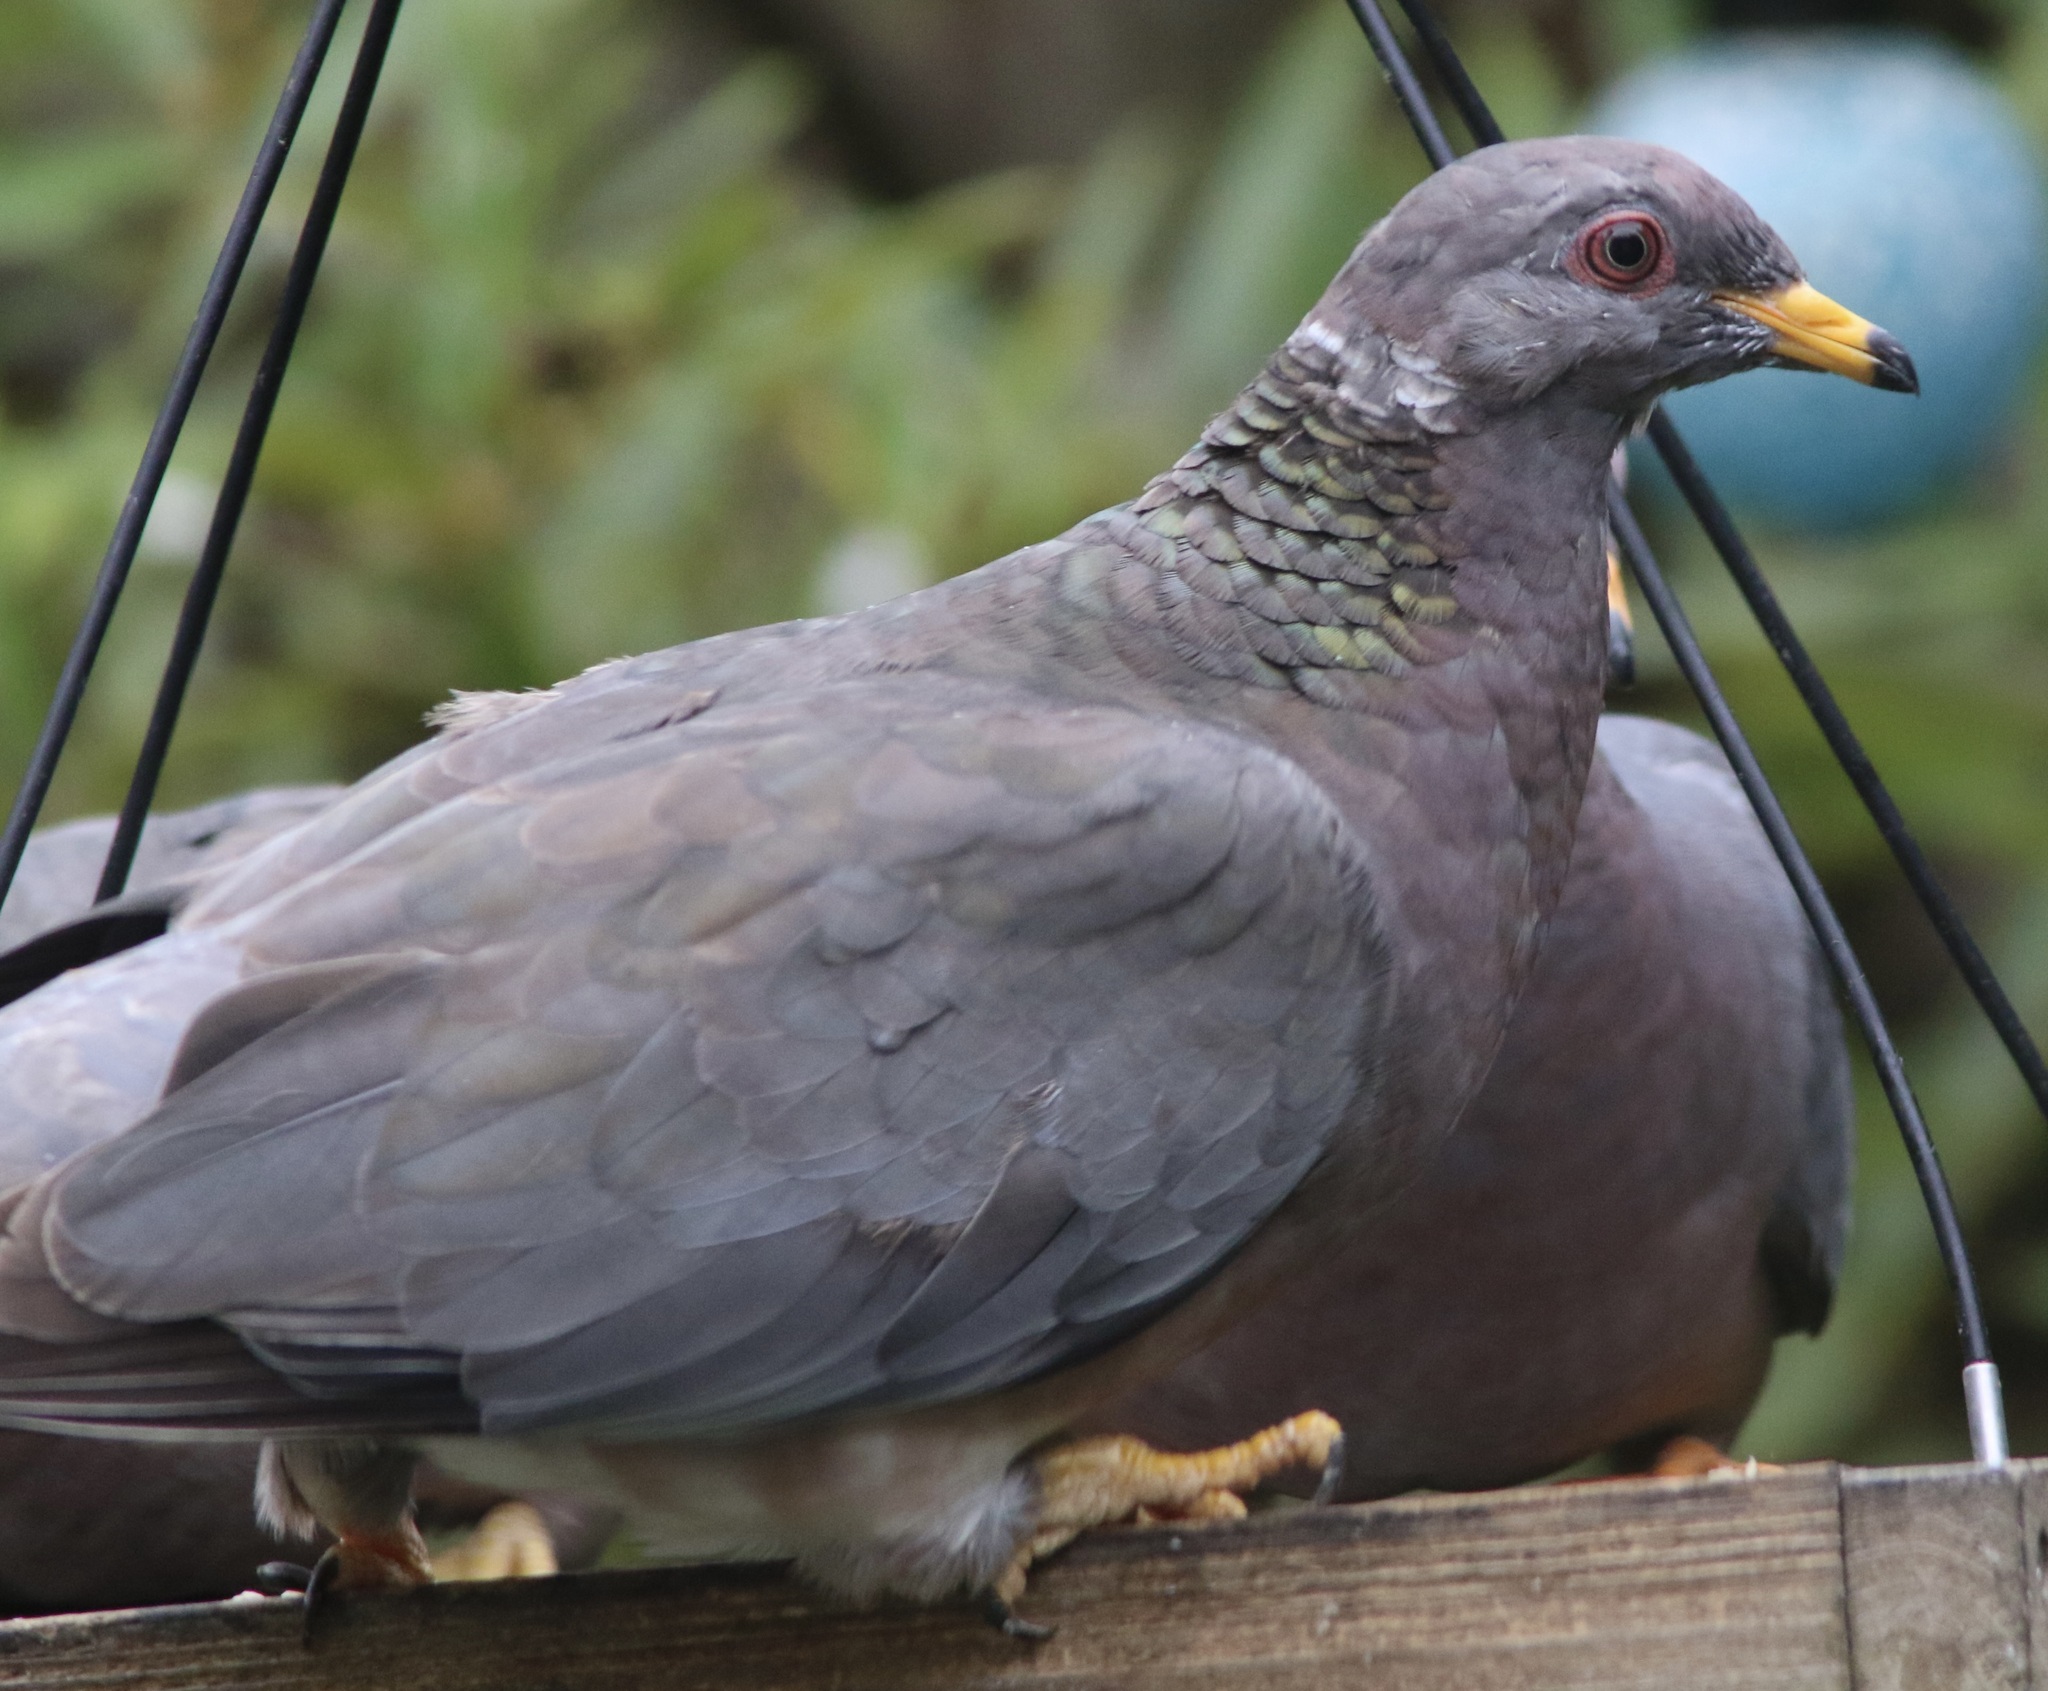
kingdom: Animalia
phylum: Chordata
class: Aves
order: Columbiformes
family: Columbidae
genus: Patagioenas
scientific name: Patagioenas fasciata
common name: Band-tailed pigeon
